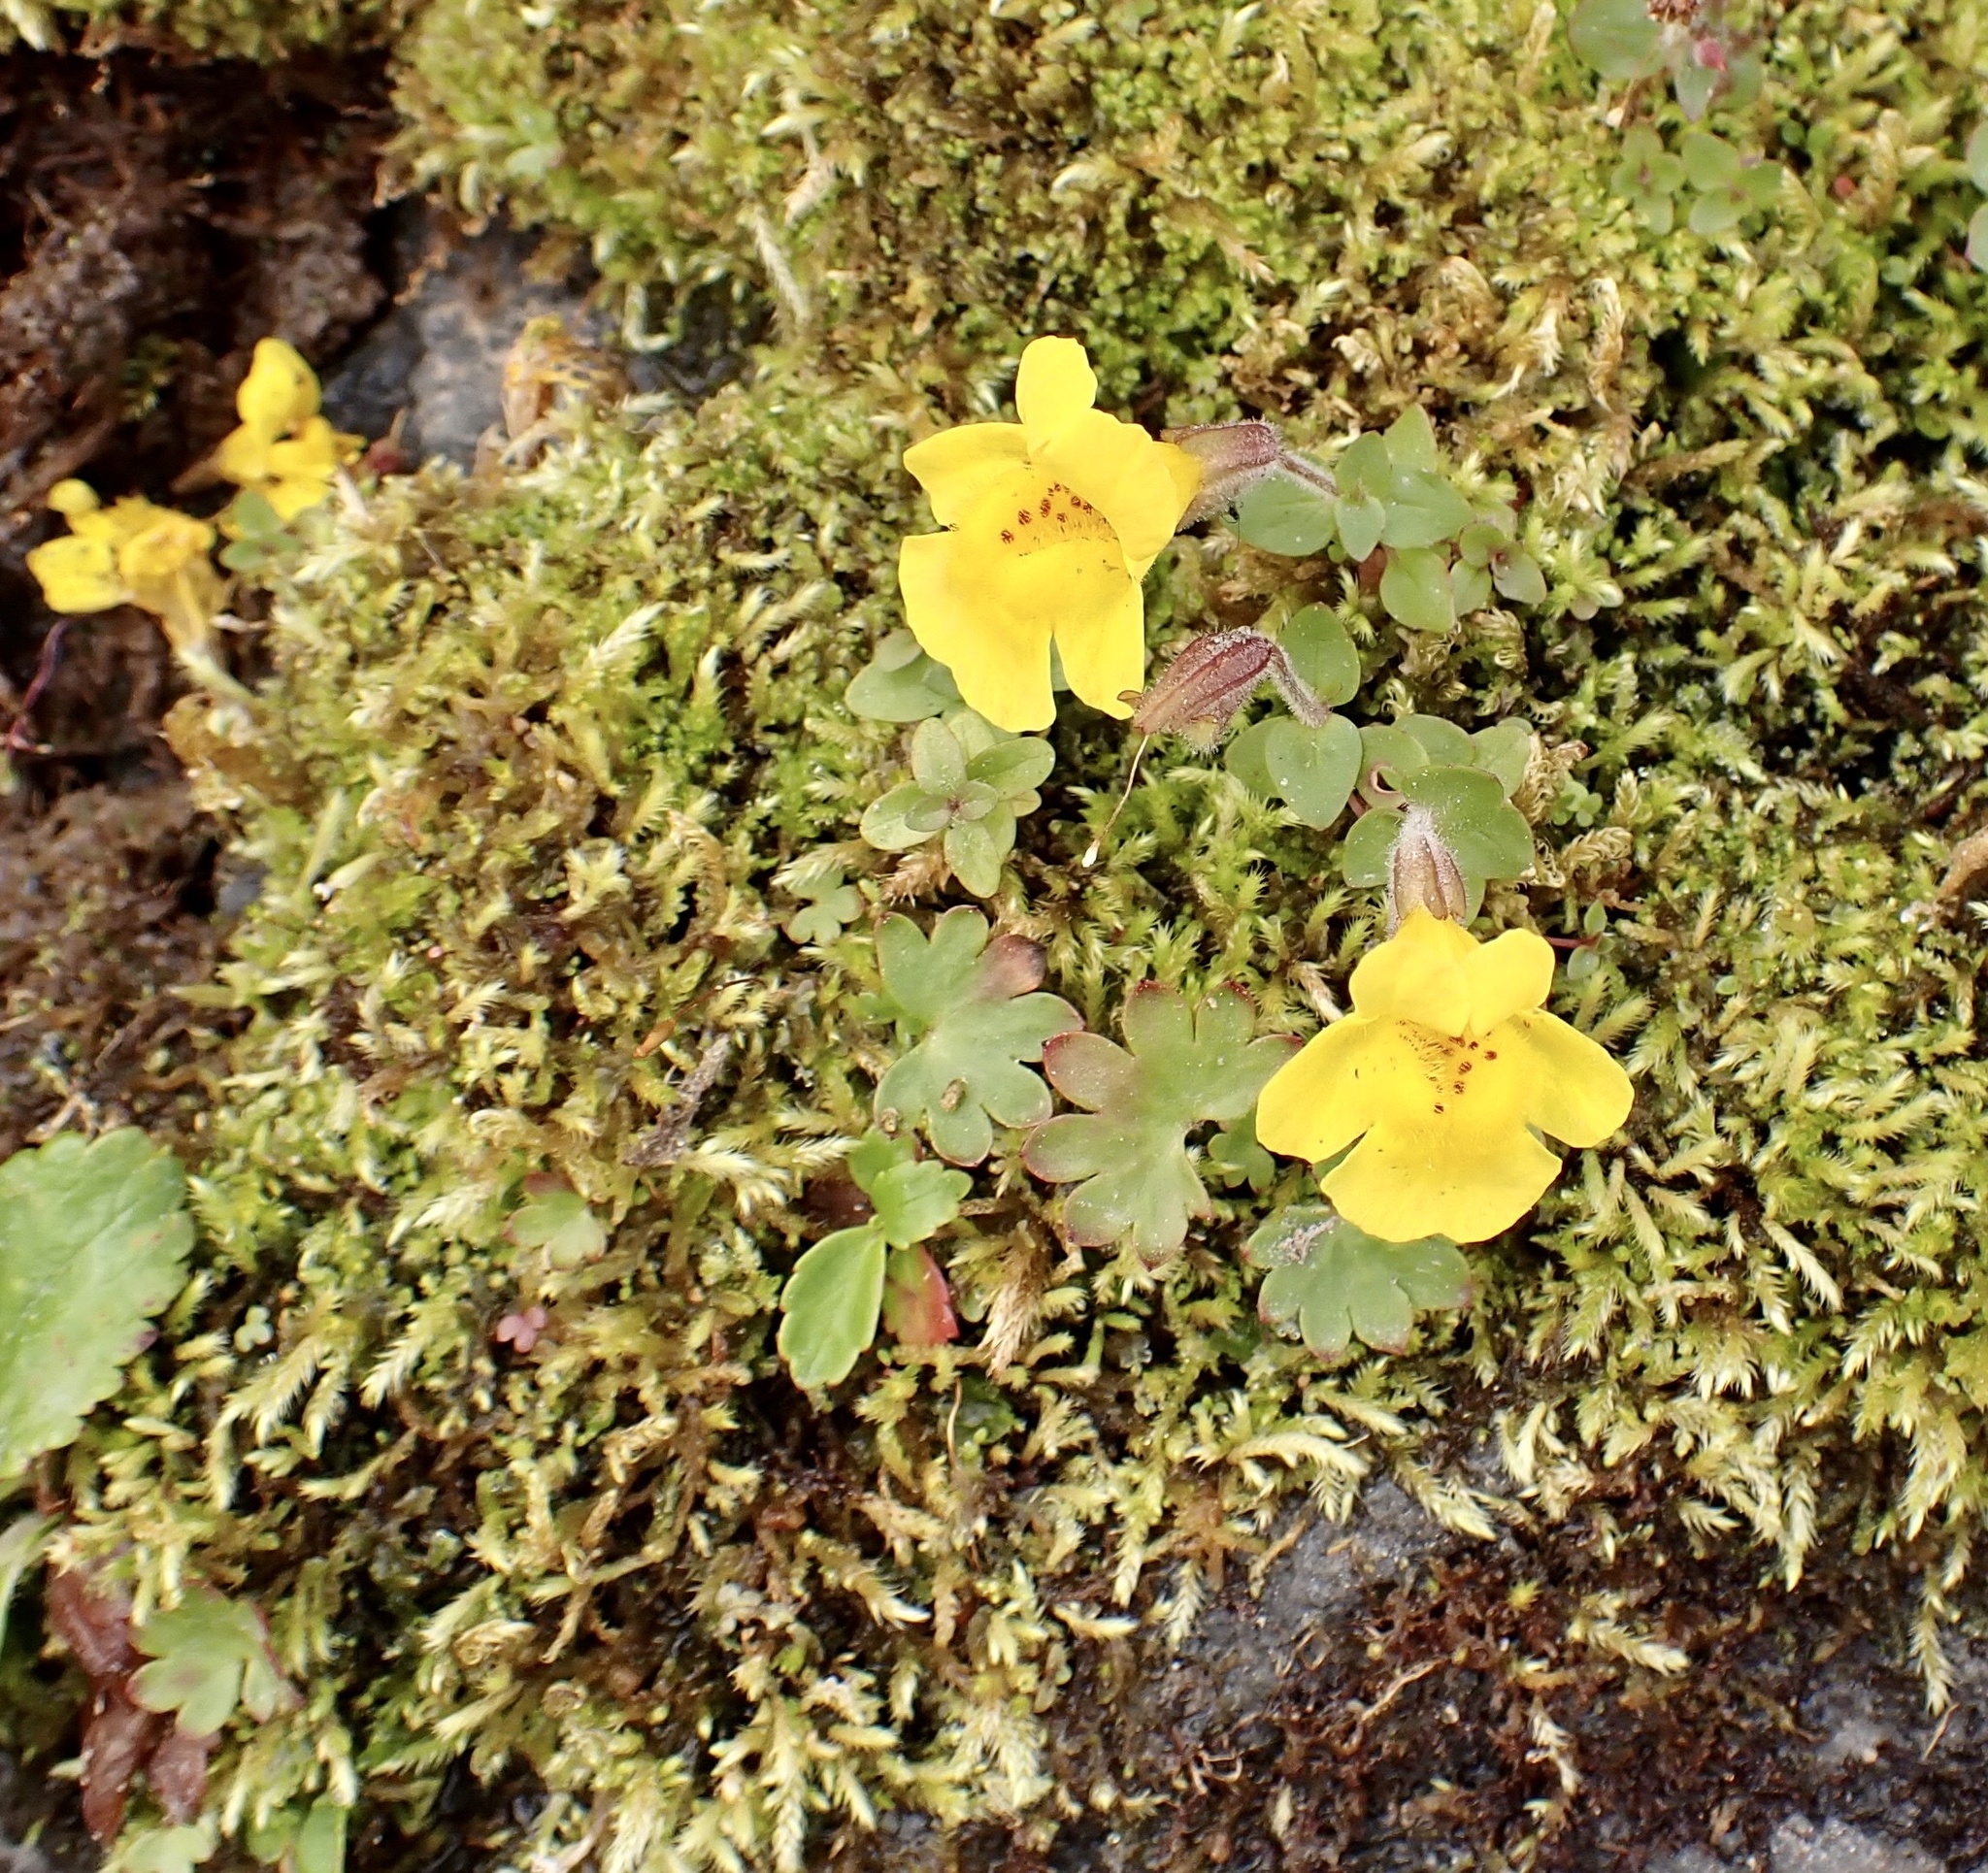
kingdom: Plantae
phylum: Tracheophyta
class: Magnoliopsida
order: Lamiales
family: Phrymaceae
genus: Erythranthe
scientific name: Erythranthe caespitosa
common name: Subalpine monkeyflower
